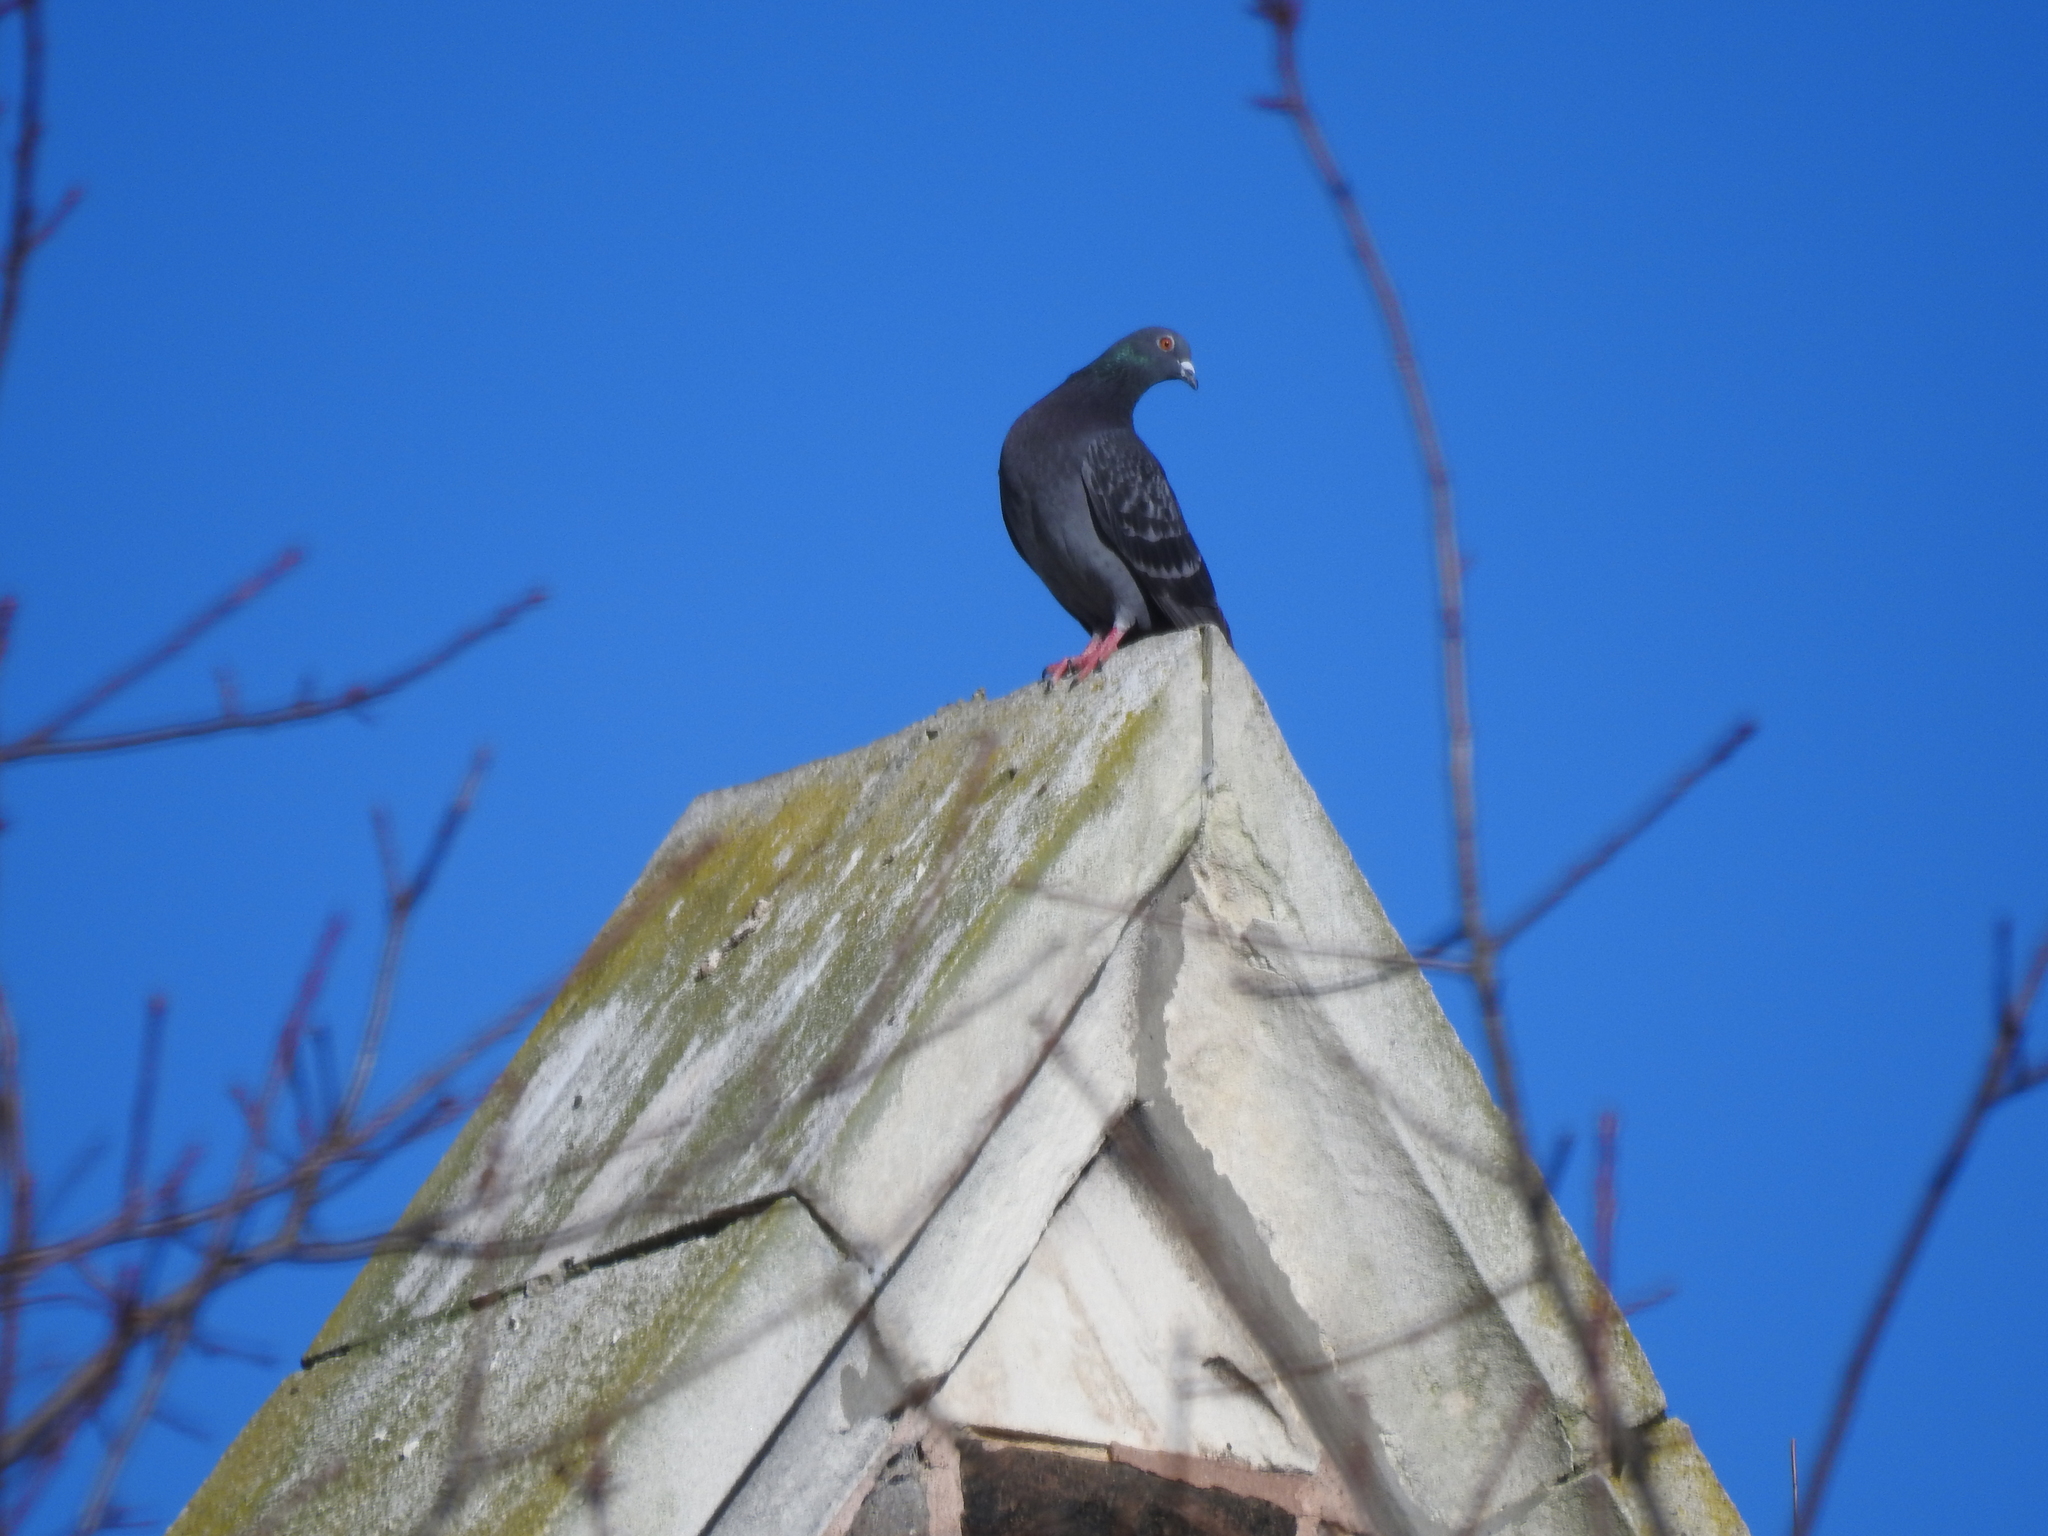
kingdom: Animalia
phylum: Chordata
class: Aves
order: Columbiformes
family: Columbidae
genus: Columba
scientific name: Columba livia
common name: Rock pigeon
